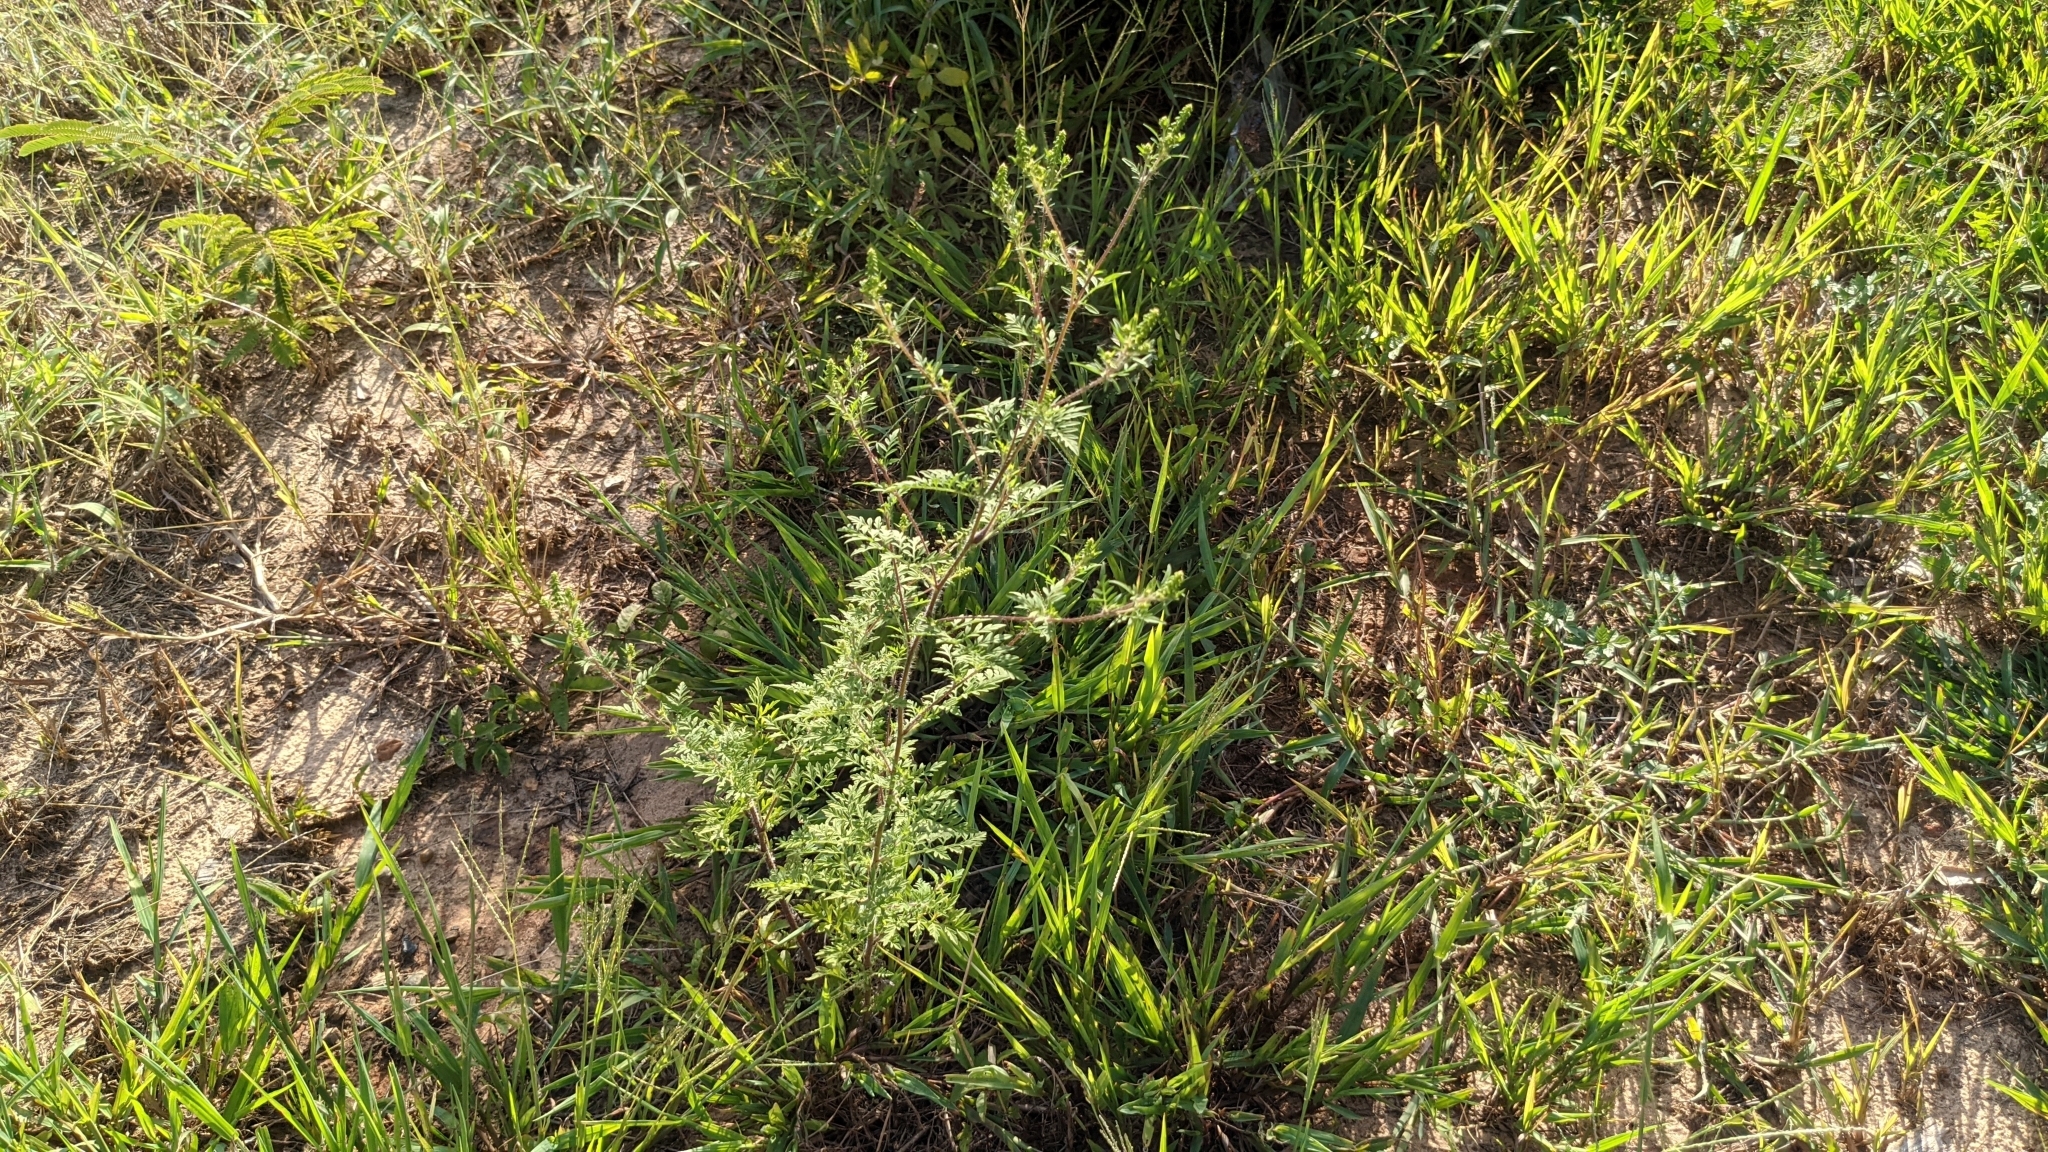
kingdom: Plantae
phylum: Tracheophyta
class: Magnoliopsida
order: Asterales
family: Asteraceae
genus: Ambrosia
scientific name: Ambrosia artemisiifolia
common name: Annual ragweed
